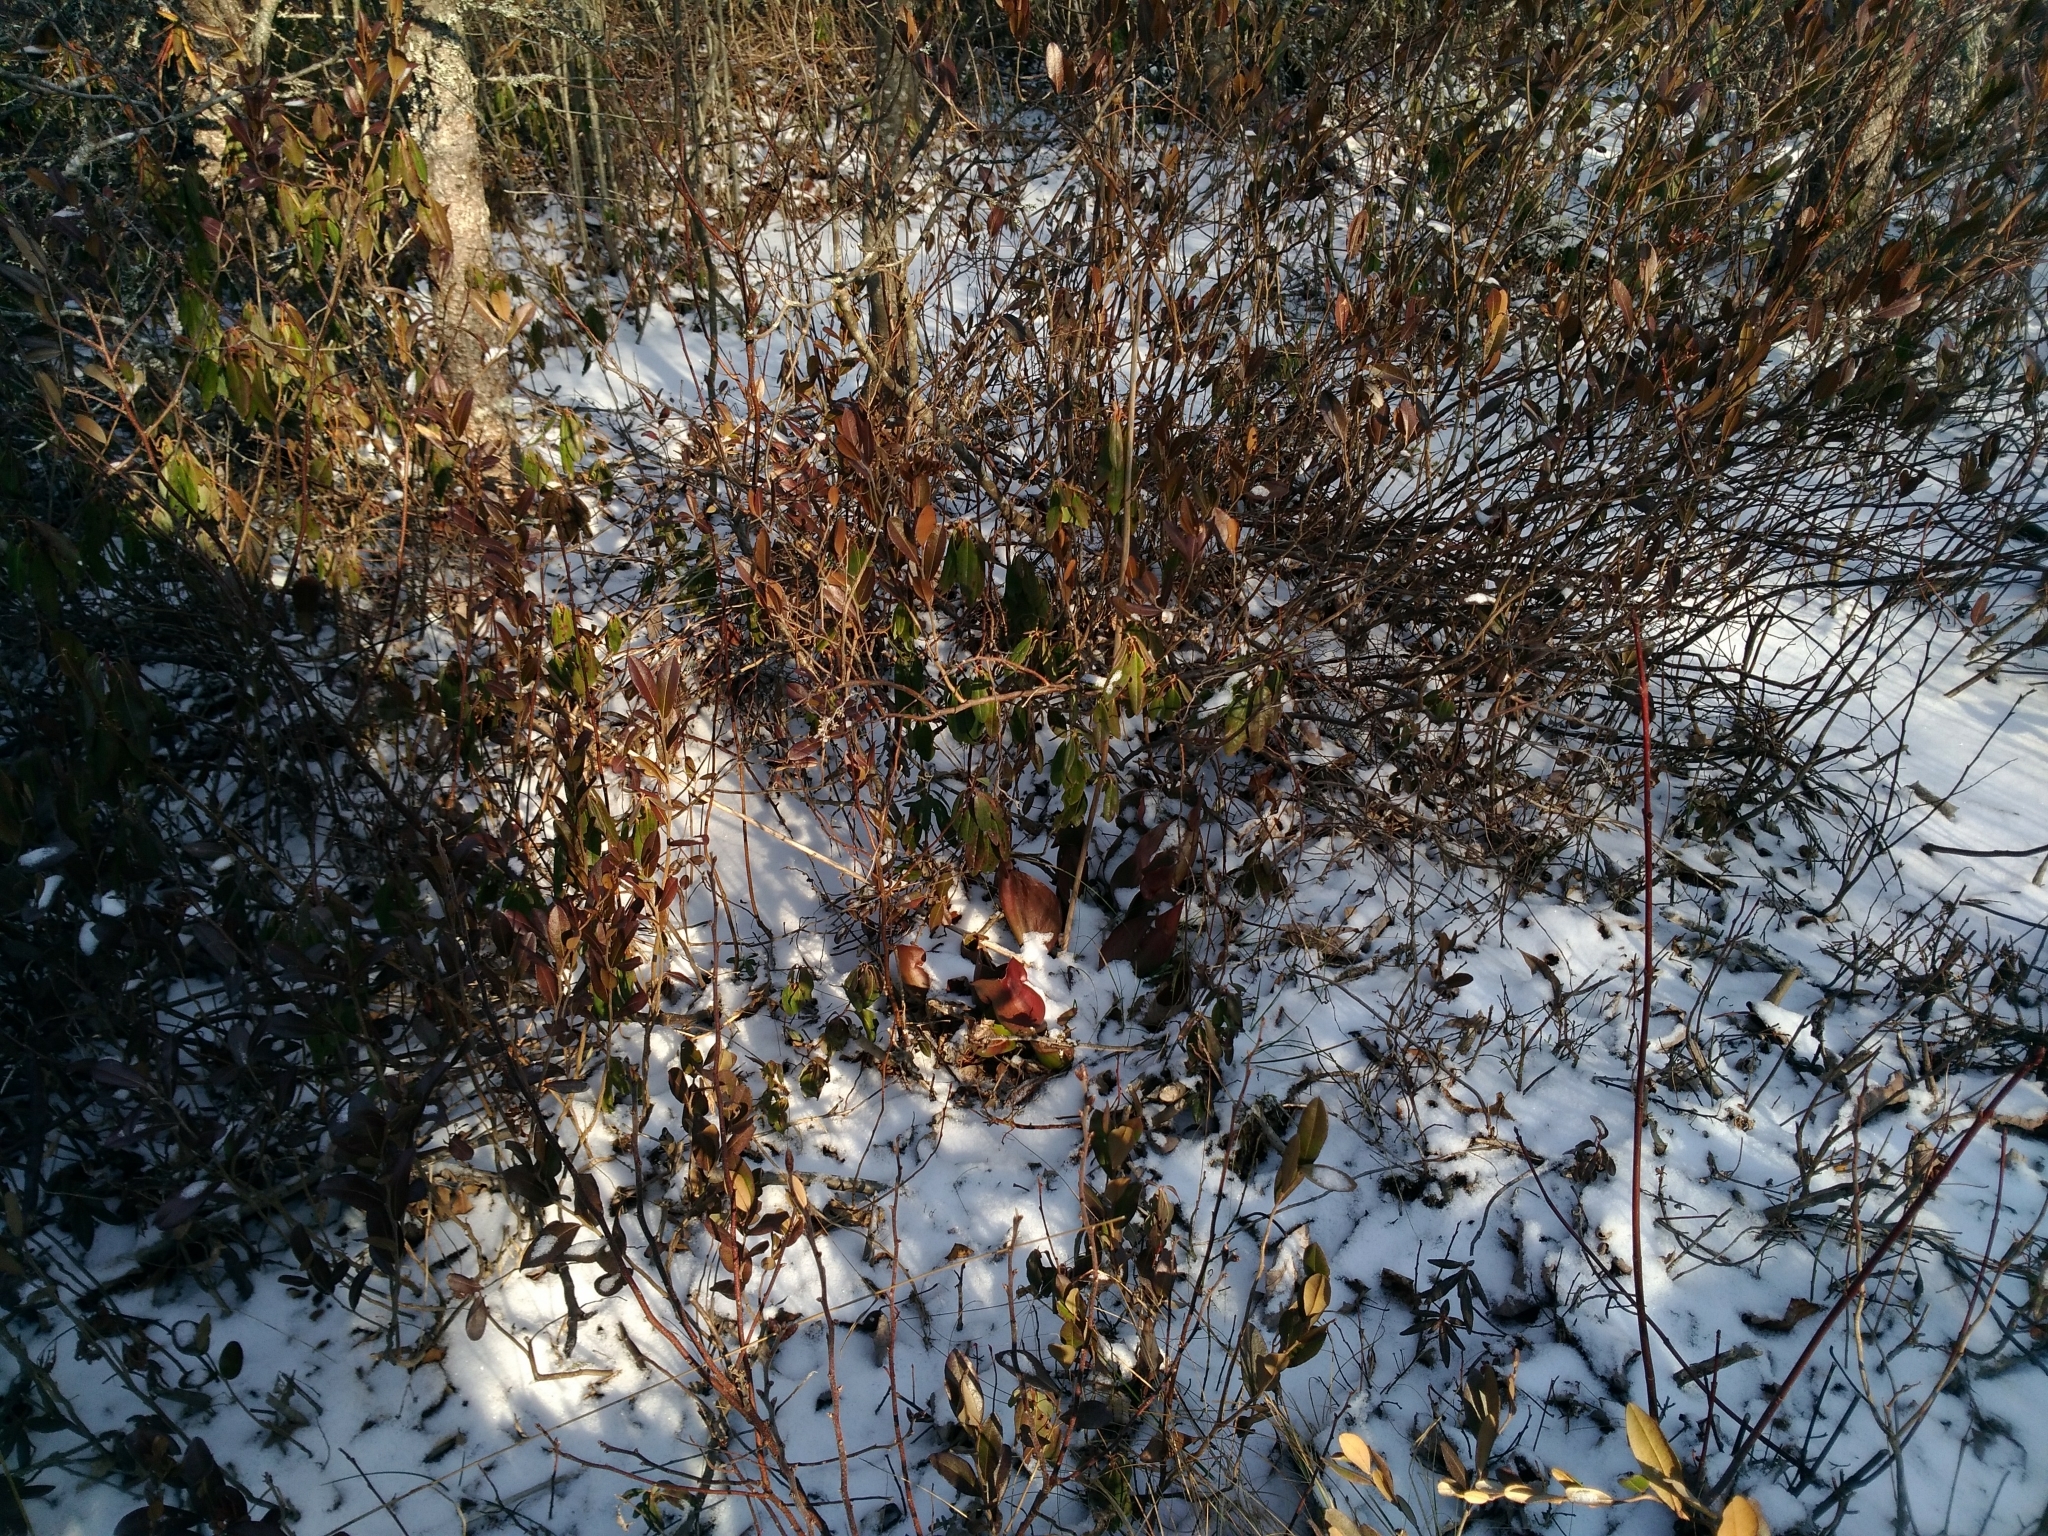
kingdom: Plantae
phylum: Tracheophyta
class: Magnoliopsida
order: Ericales
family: Sarraceniaceae
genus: Sarracenia
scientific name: Sarracenia purpurea
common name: Pitcherplant
